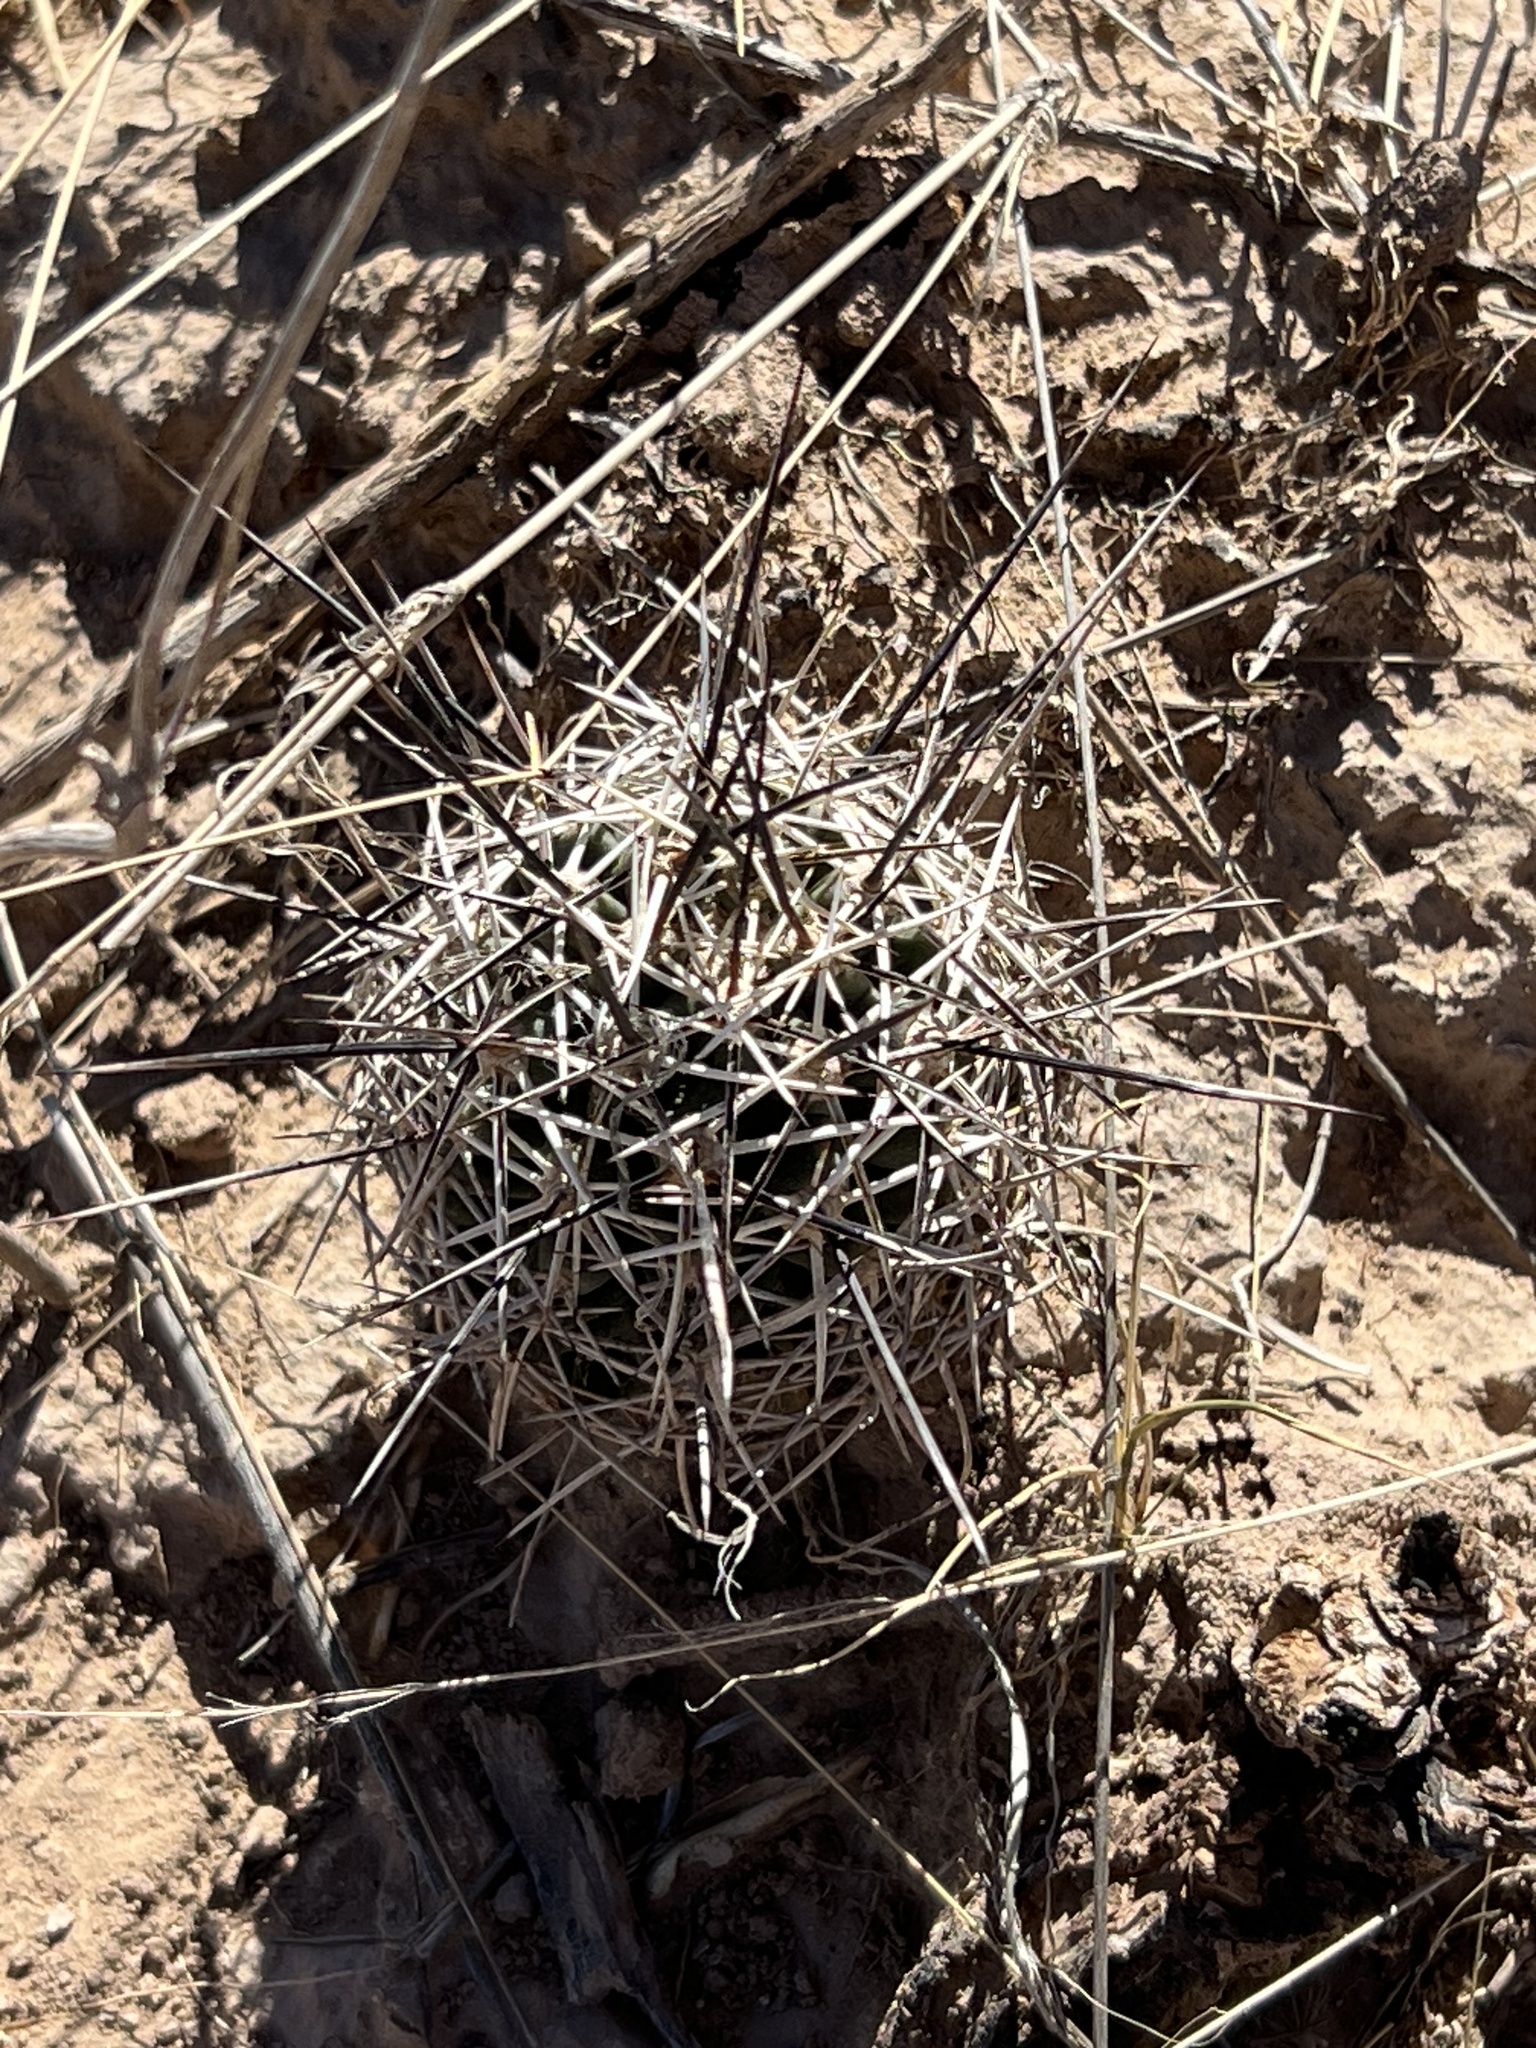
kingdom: Plantae
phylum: Tracheophyta
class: Magnoliopsida
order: Caryophyllales
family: Cactaceae
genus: Echinocereus
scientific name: Echinocereus fendleri
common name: Fendler's hedgehog cactus
